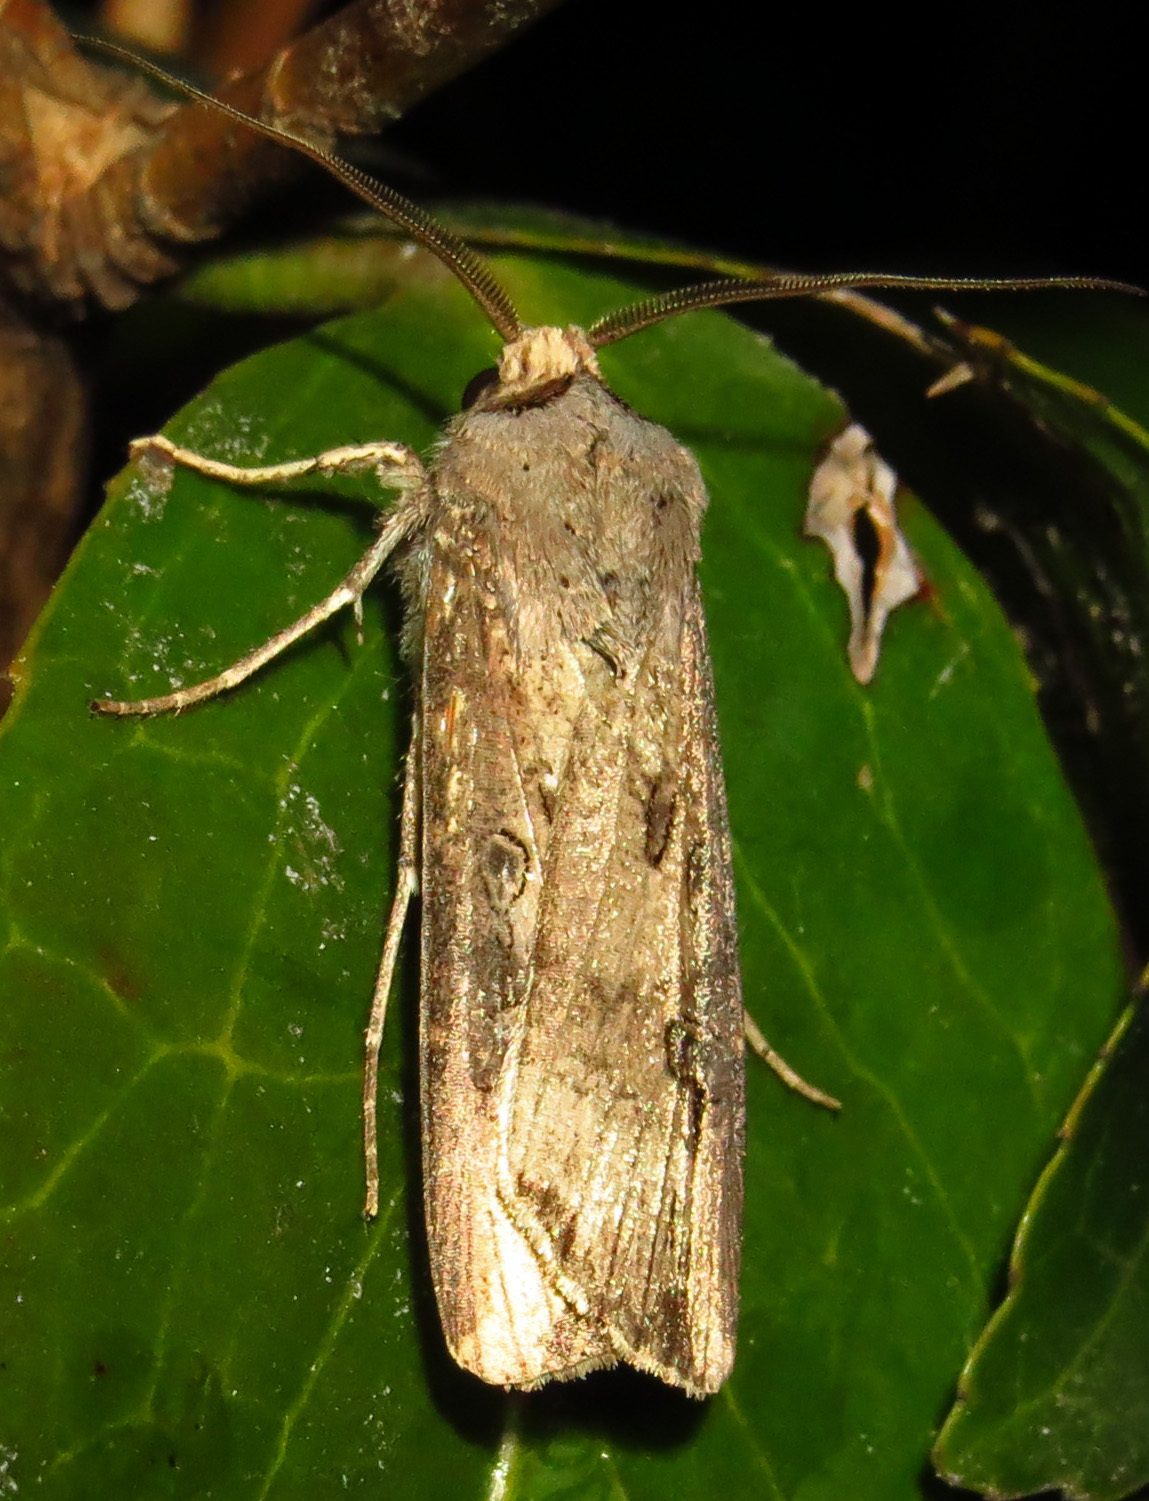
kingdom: Animalia
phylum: Arthropoda
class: Insecta
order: Lepidoptera
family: Noctuidae
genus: Agrotis
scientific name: Agrotis ipsilon
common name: Dark sword-grass
